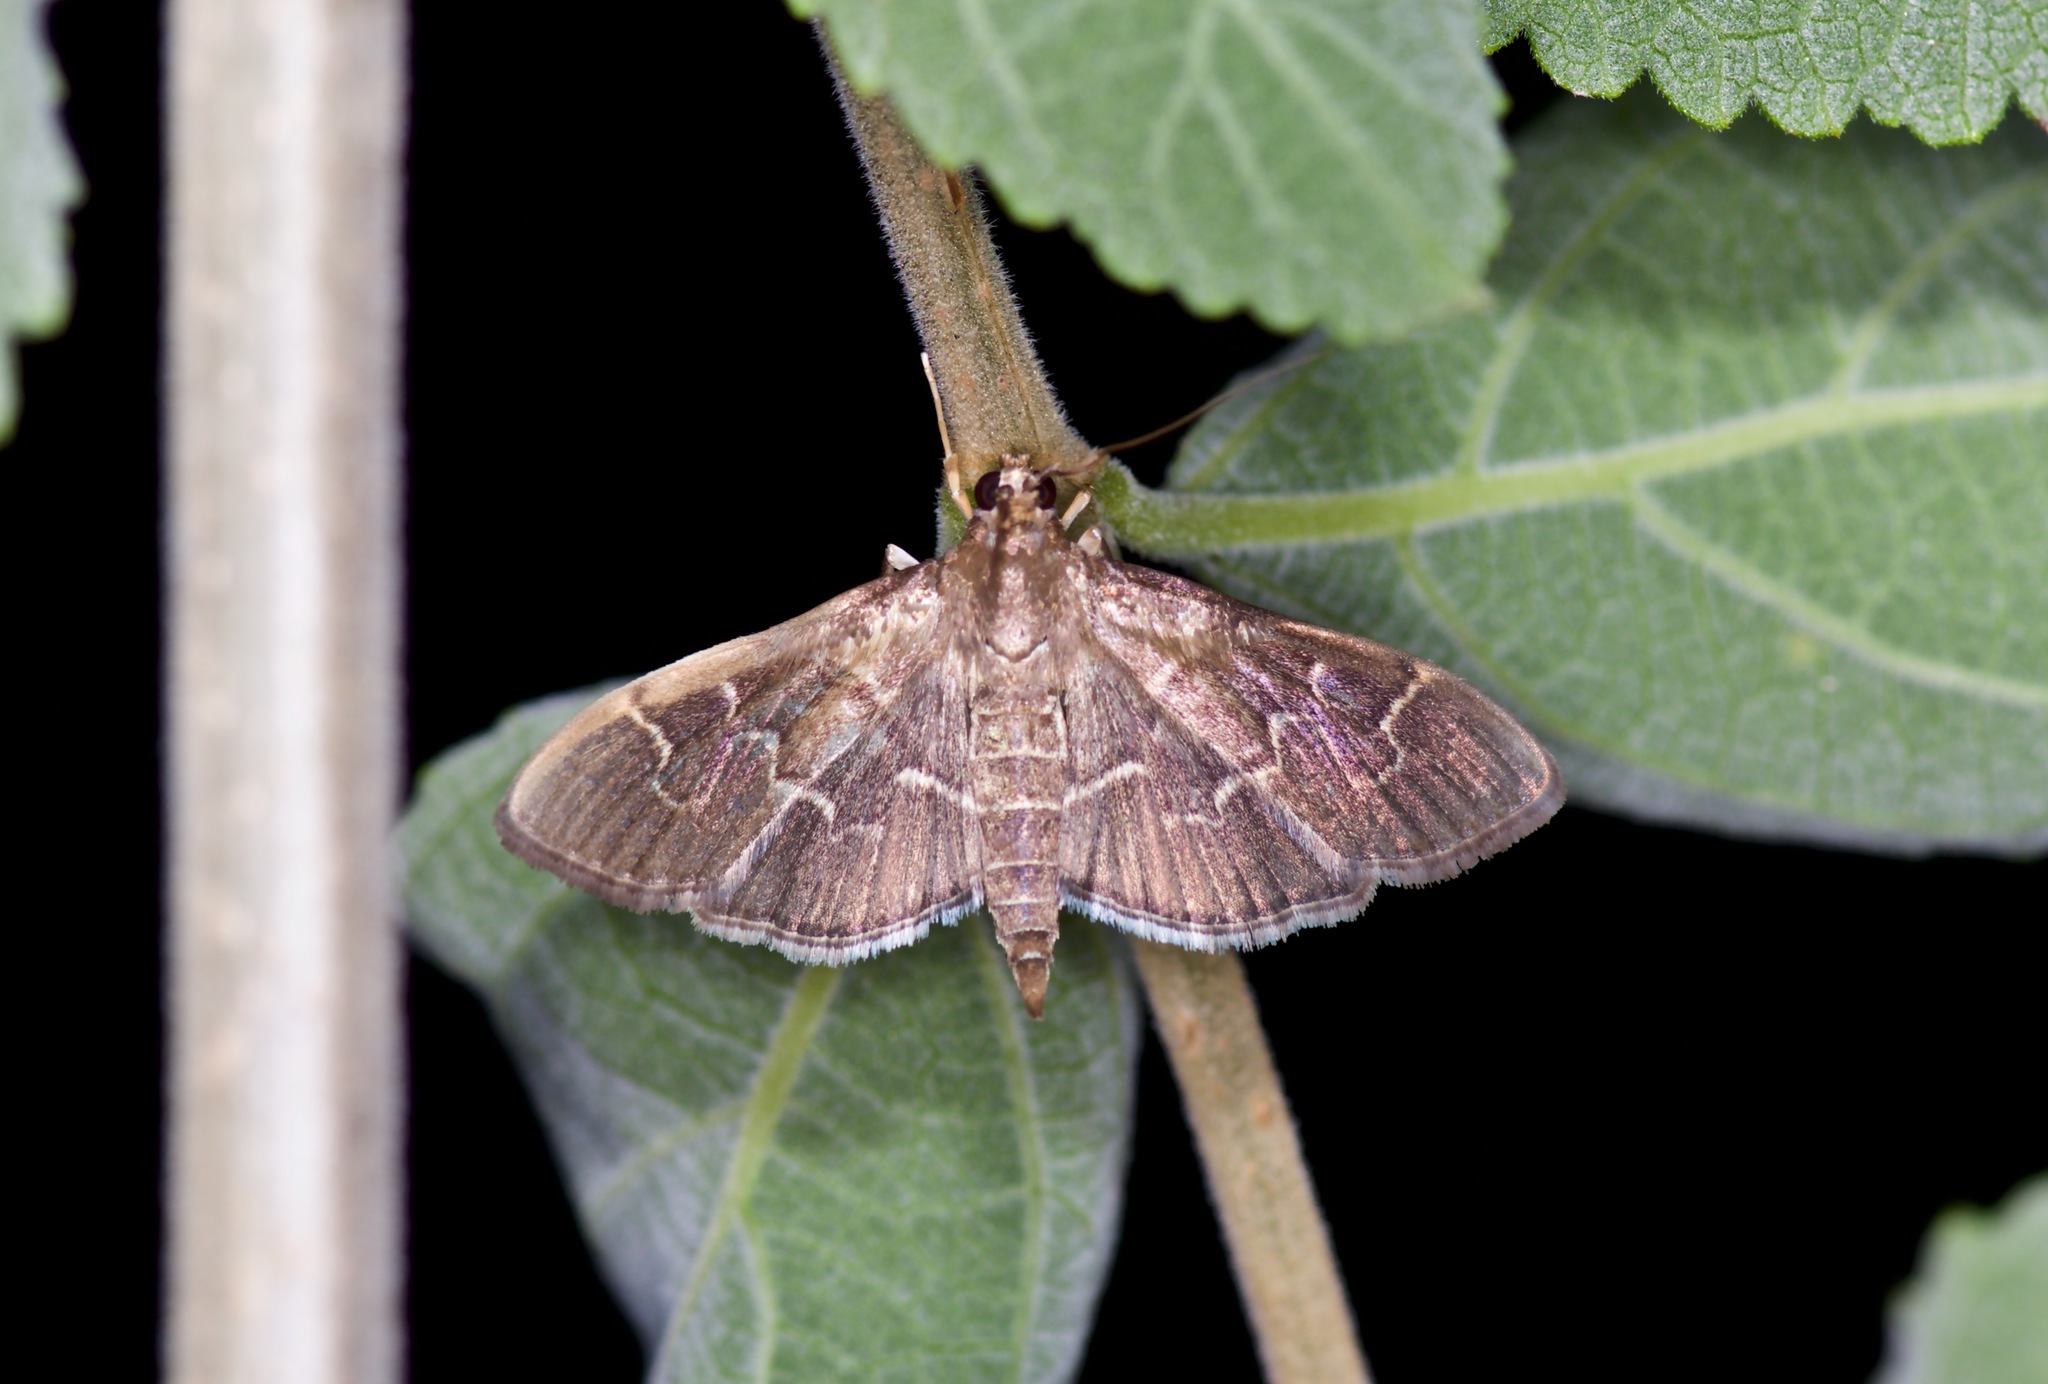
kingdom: Animalia
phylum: Arthropoda
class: Insecta
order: Lepidoptera
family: Crambidae
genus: Pilocrocis
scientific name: Pilocrocis ramentalis
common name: Scraped pilocrocis
